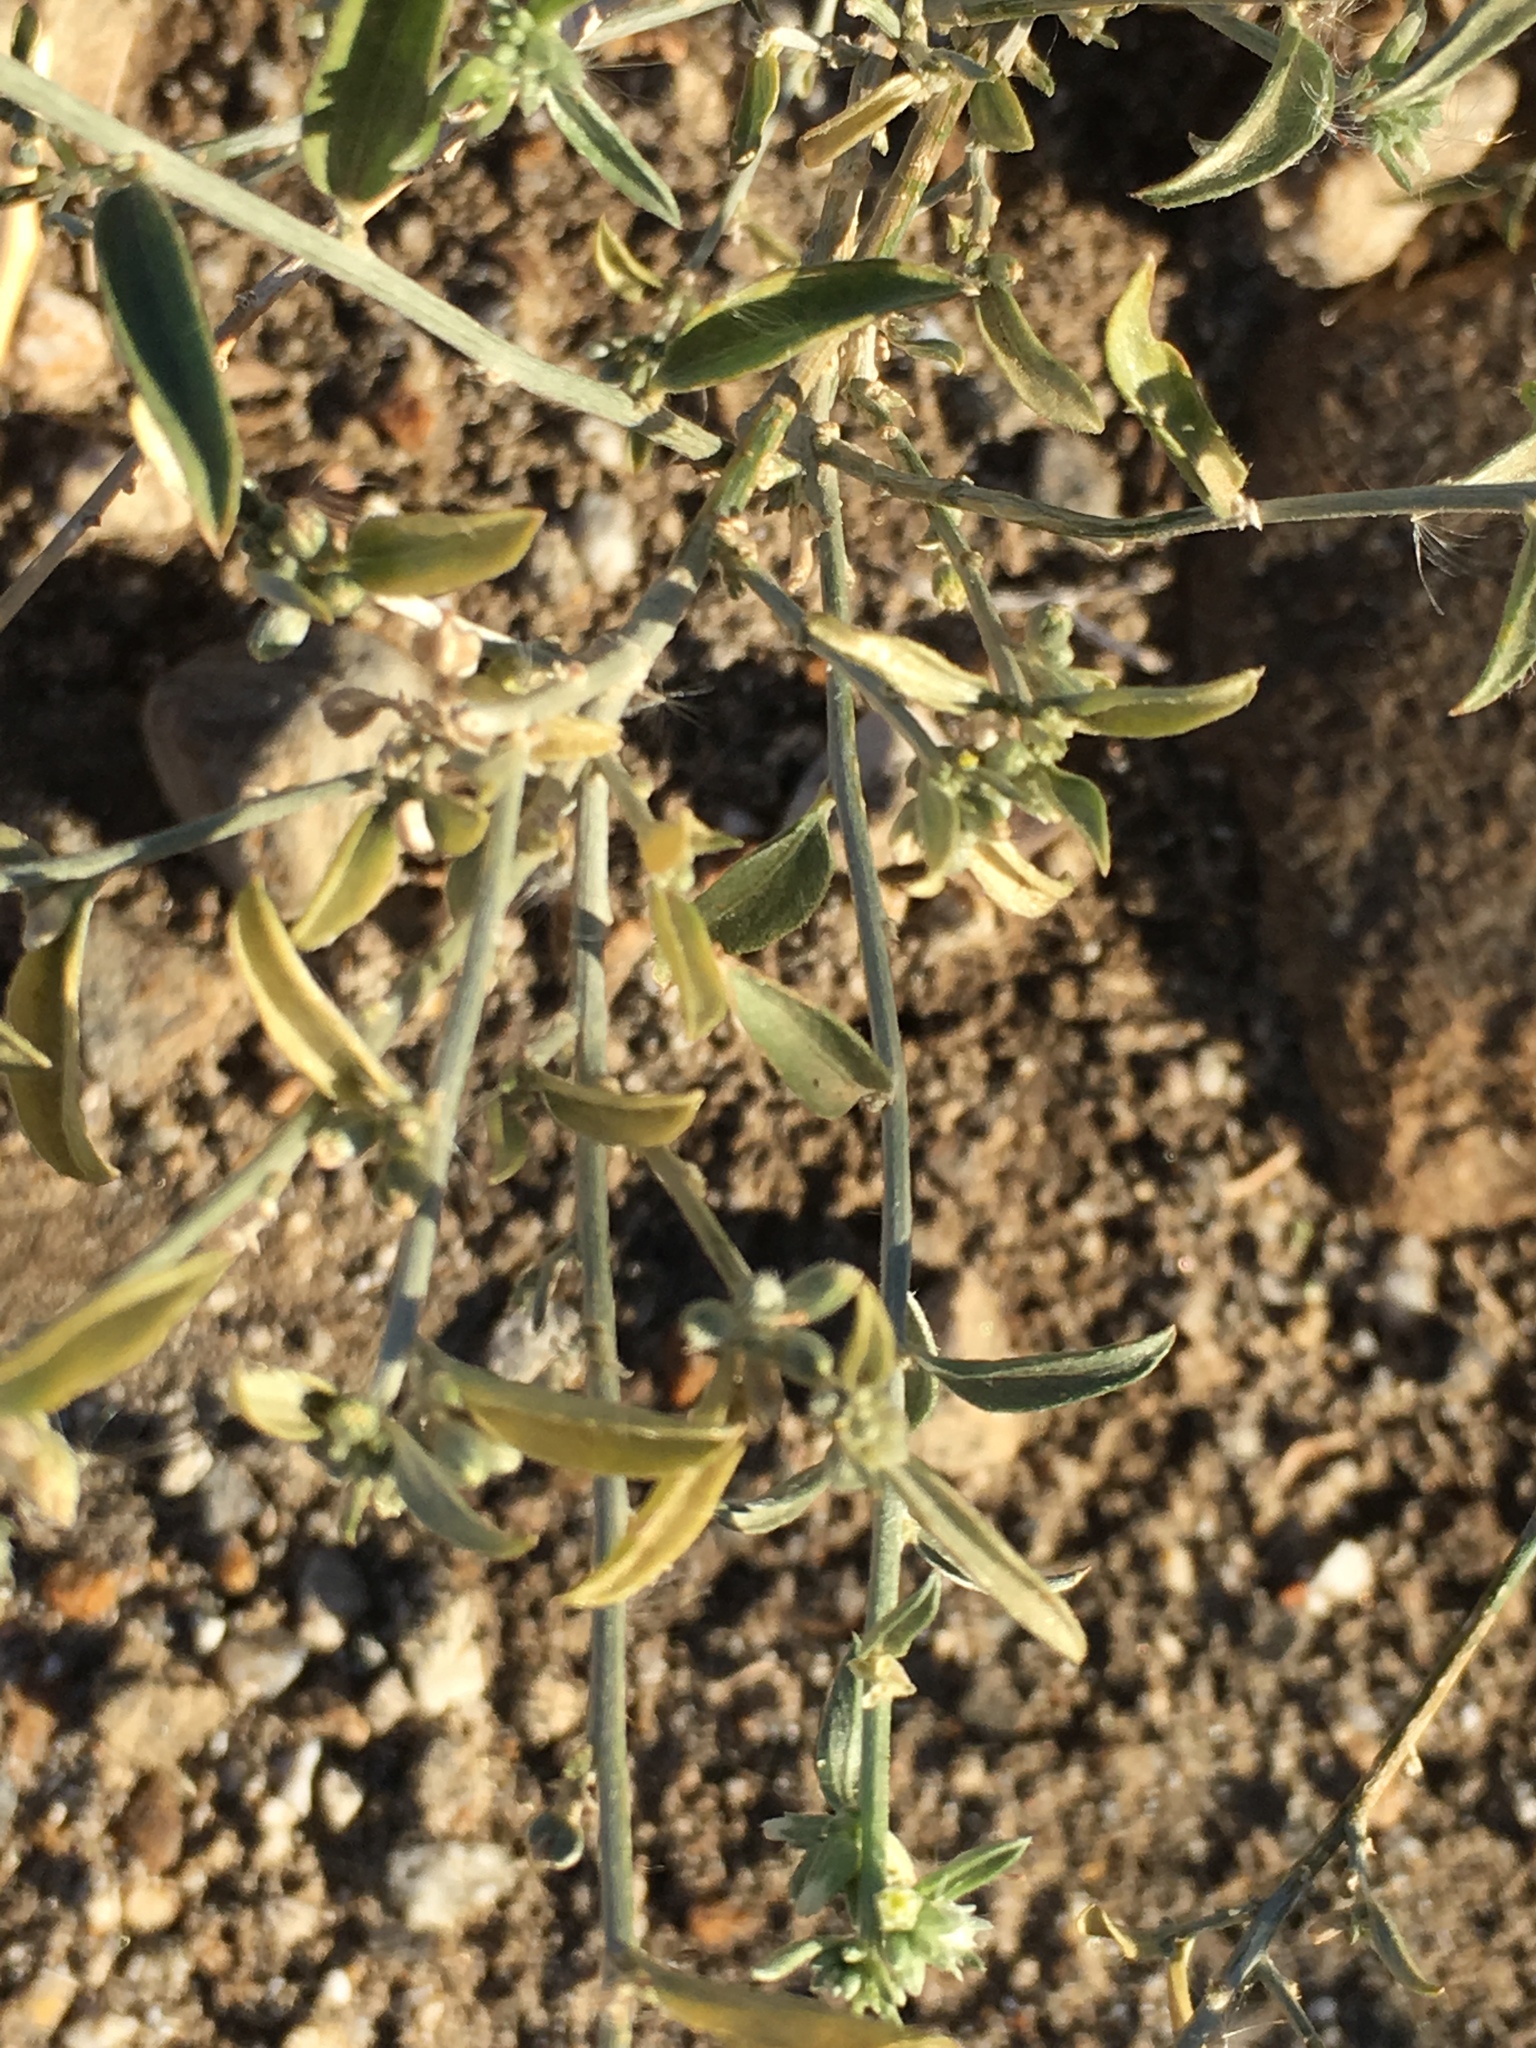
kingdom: Plantae
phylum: Tracheophyta
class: Magnoliopsida
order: Malpighiales
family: Euphorbiaceae
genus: Ditaxis
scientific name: Ditaxis lanceolata
